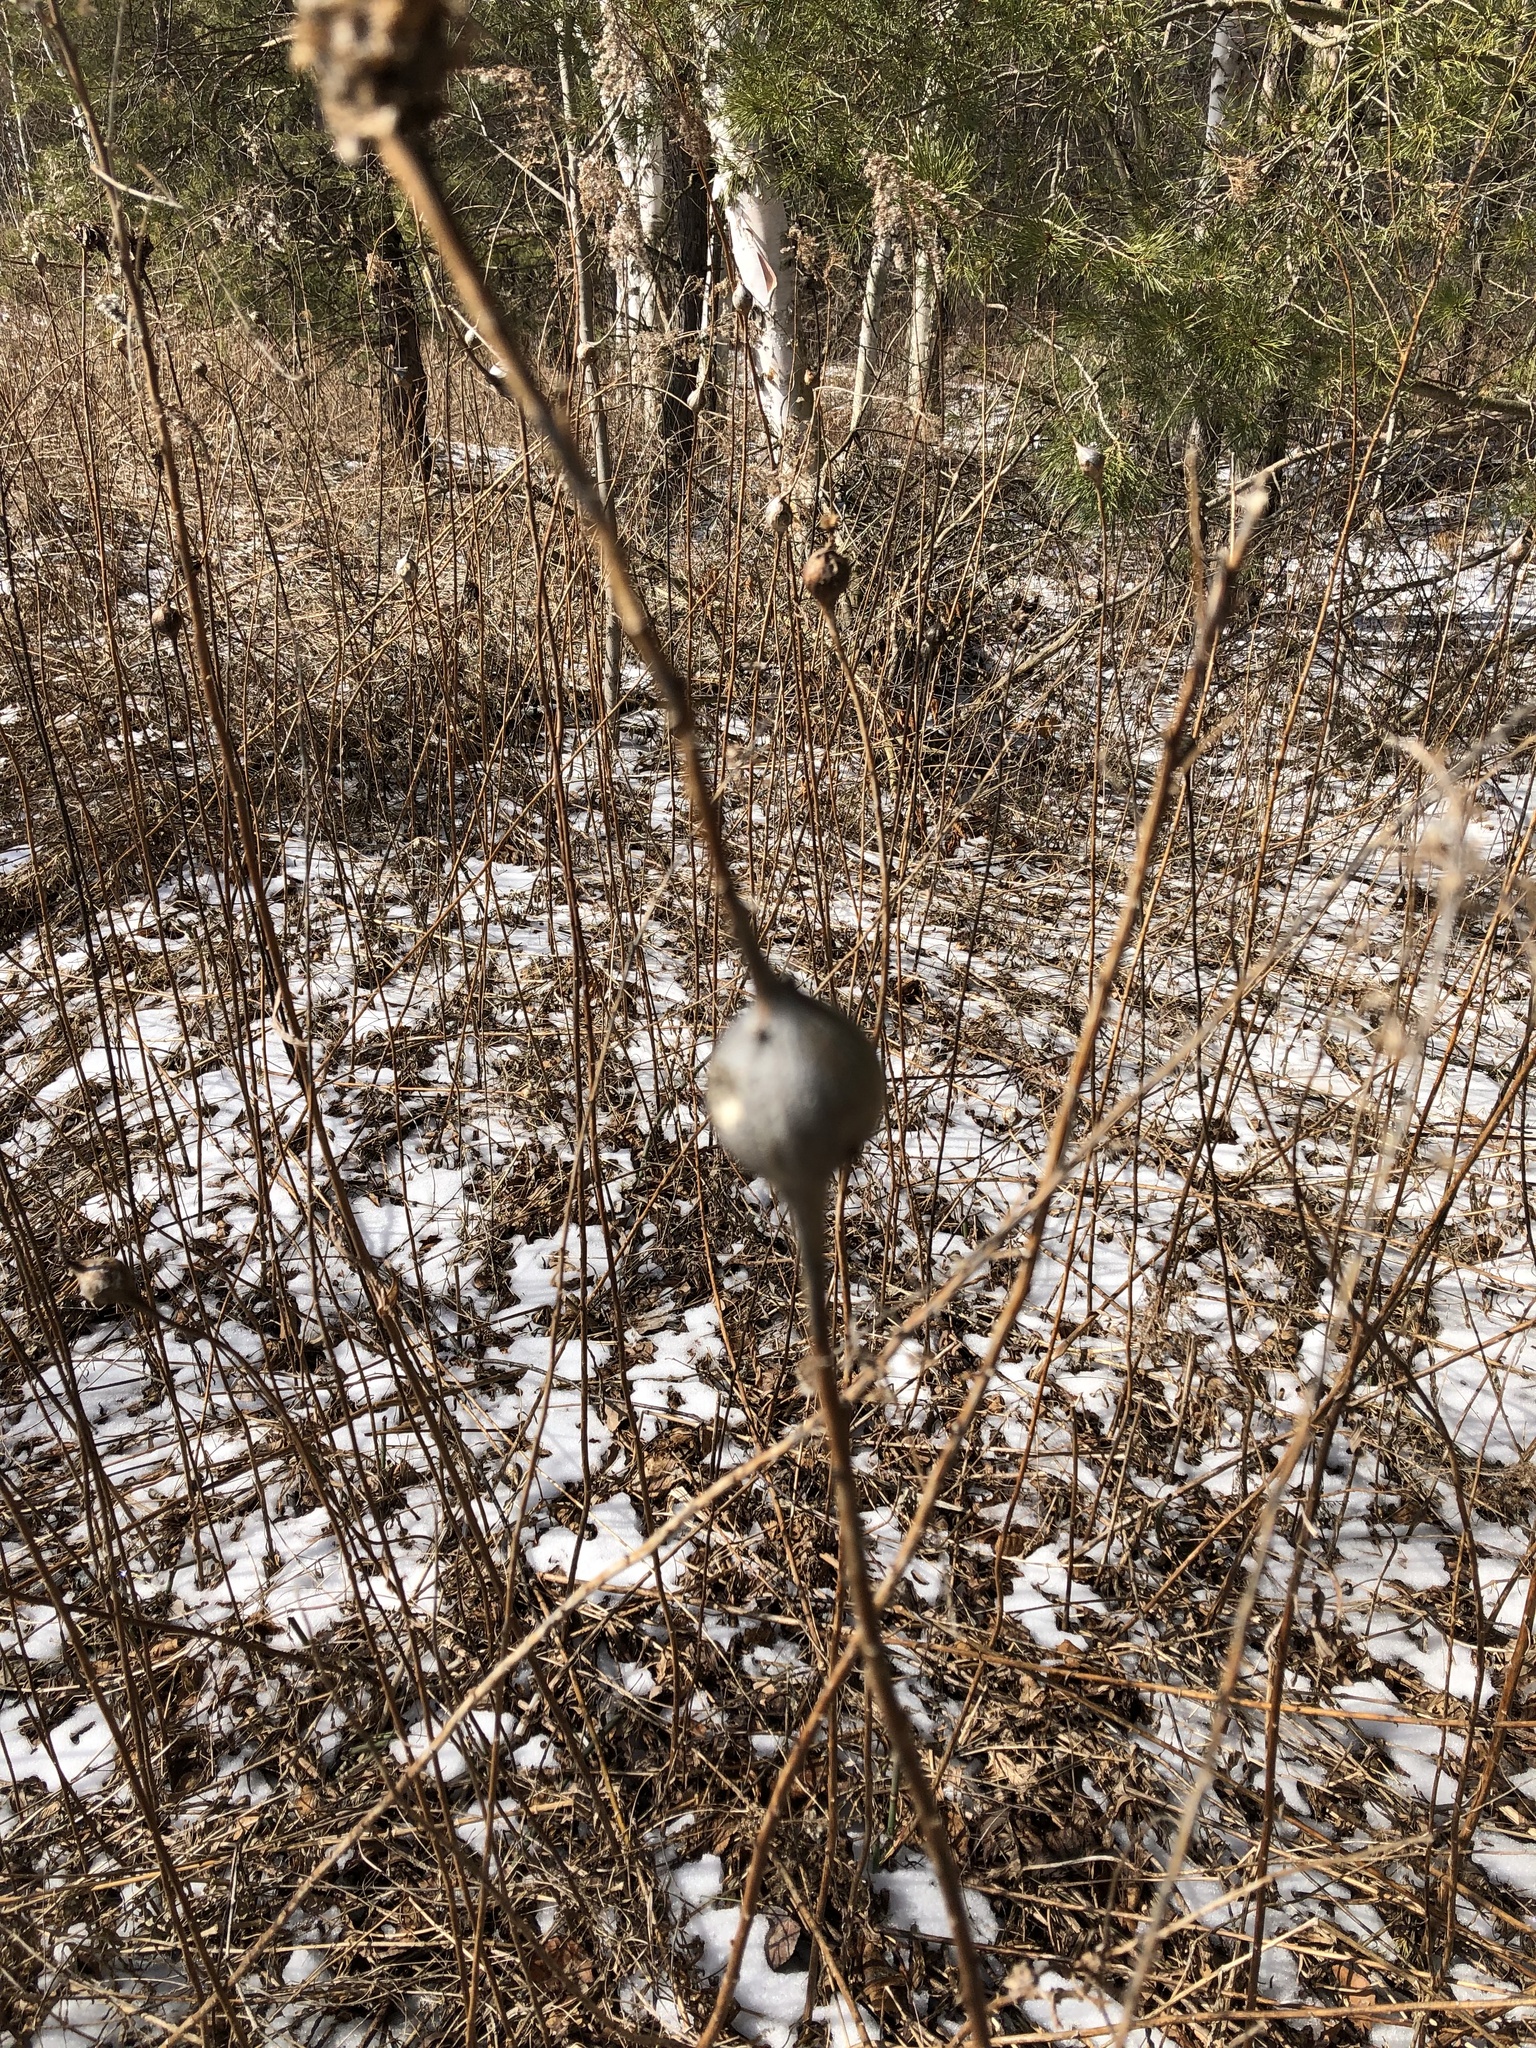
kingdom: Animalia
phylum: Arthropoda
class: Insecta
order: Diptera
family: Tephritidae
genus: Eurosta
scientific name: Eurosta solidaginis
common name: Goldenrod gall fly
